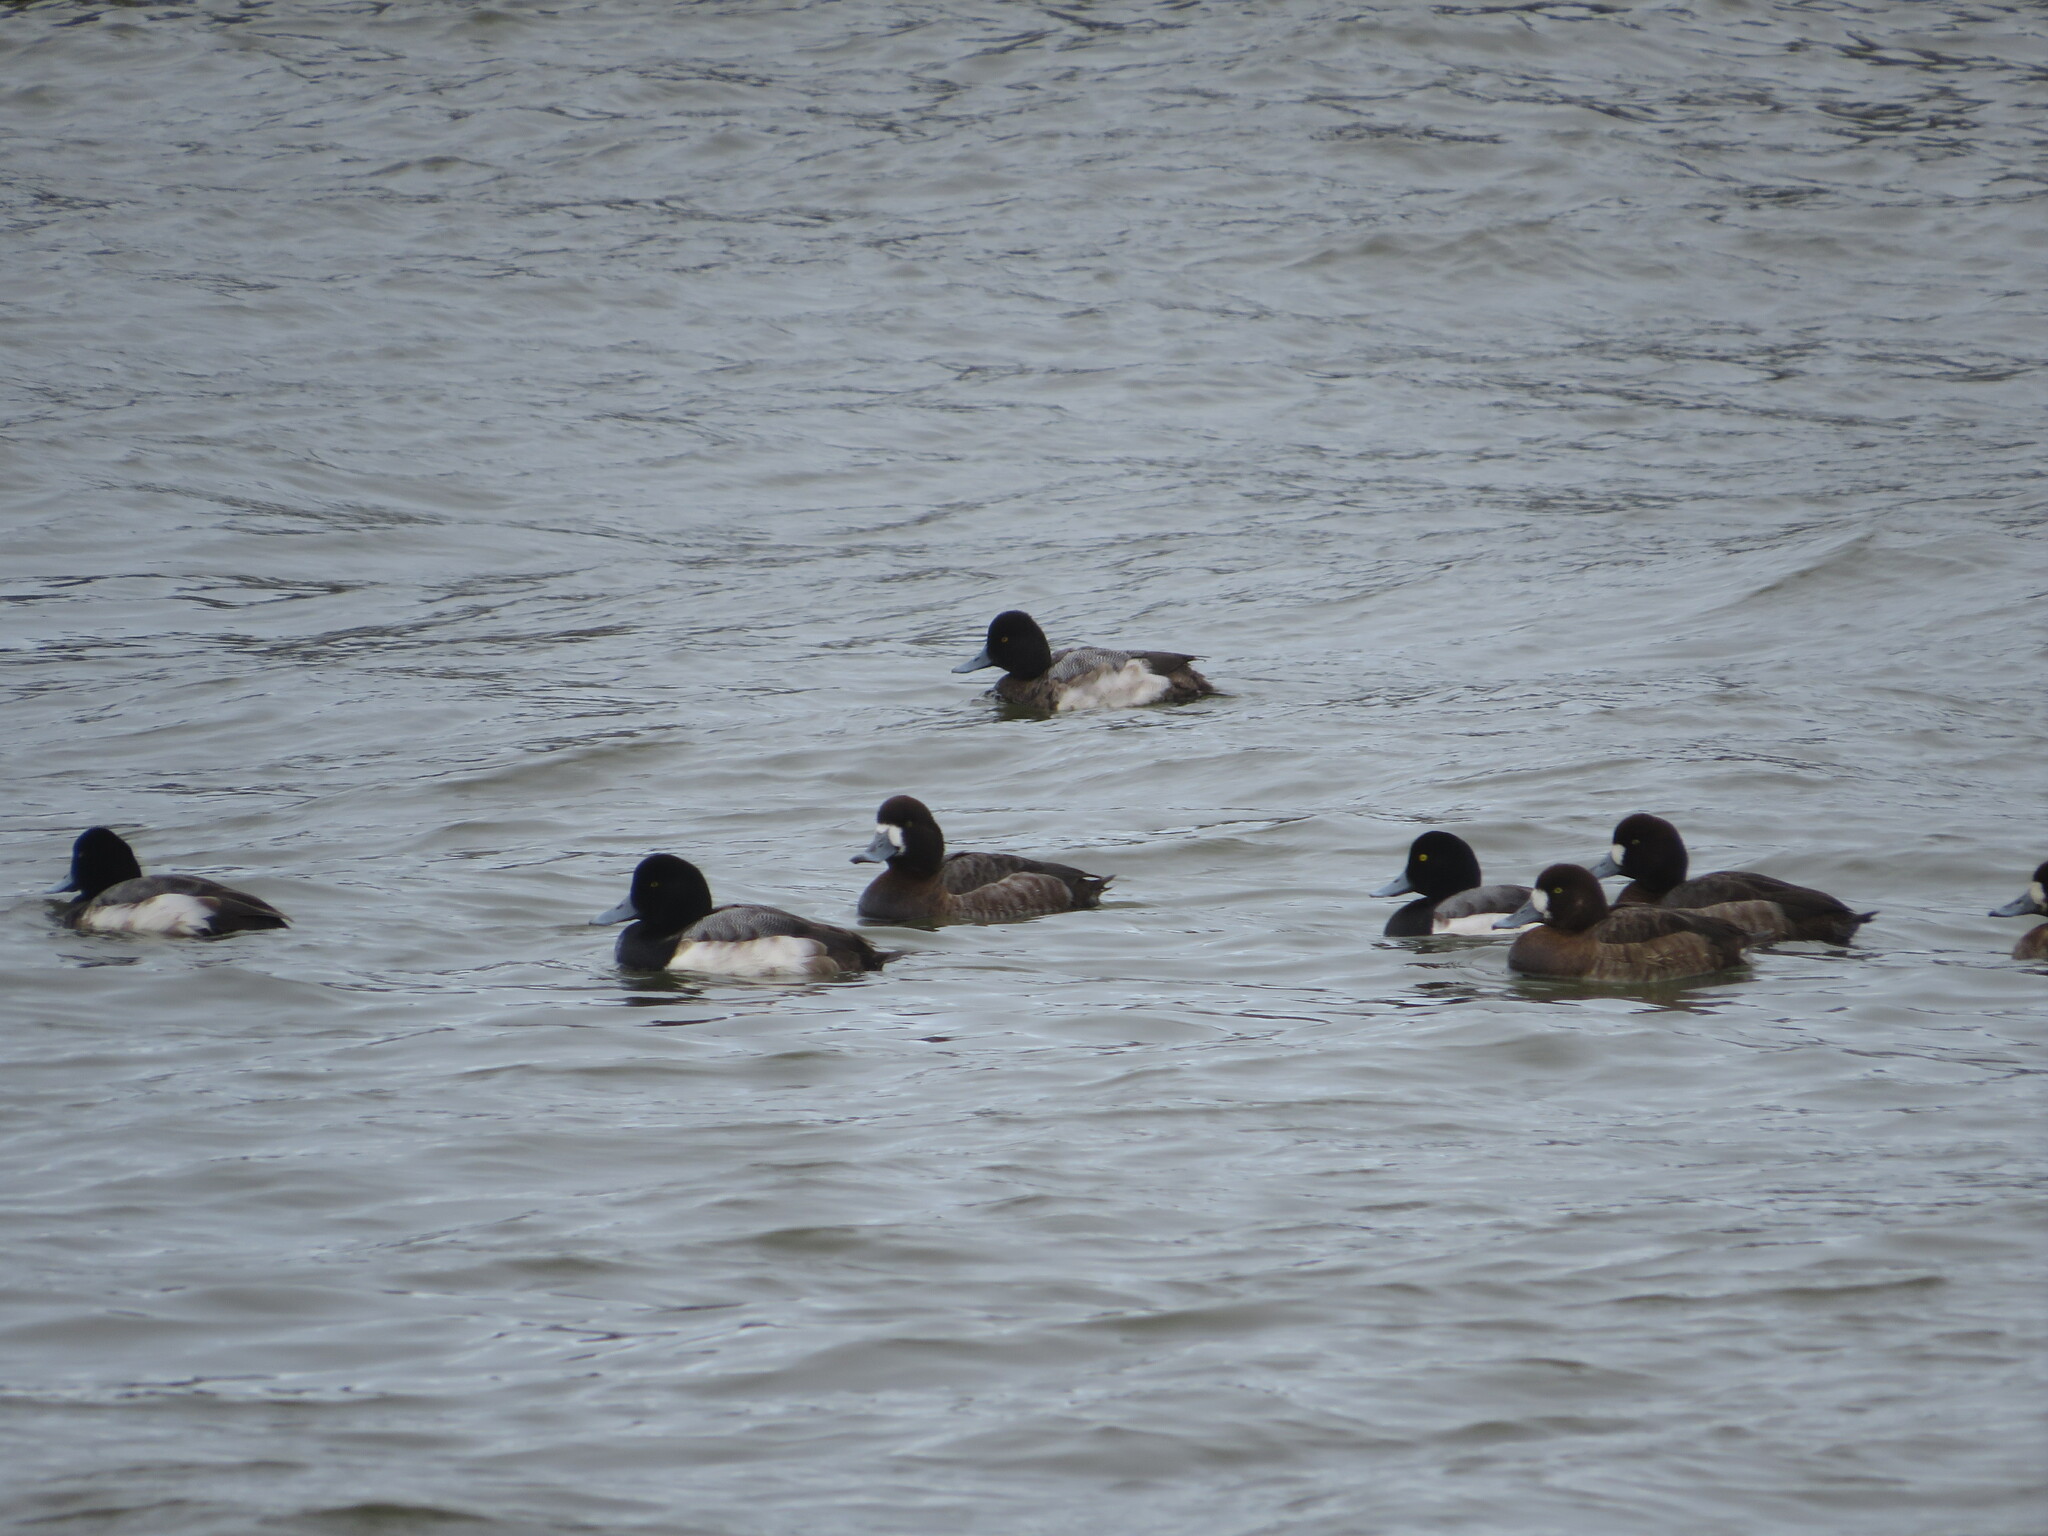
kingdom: Animalia
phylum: Chordata
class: Aves
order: Anseriformes
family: Anatidae
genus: Aythya
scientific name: Aythya affinis
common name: Lesser scaup
